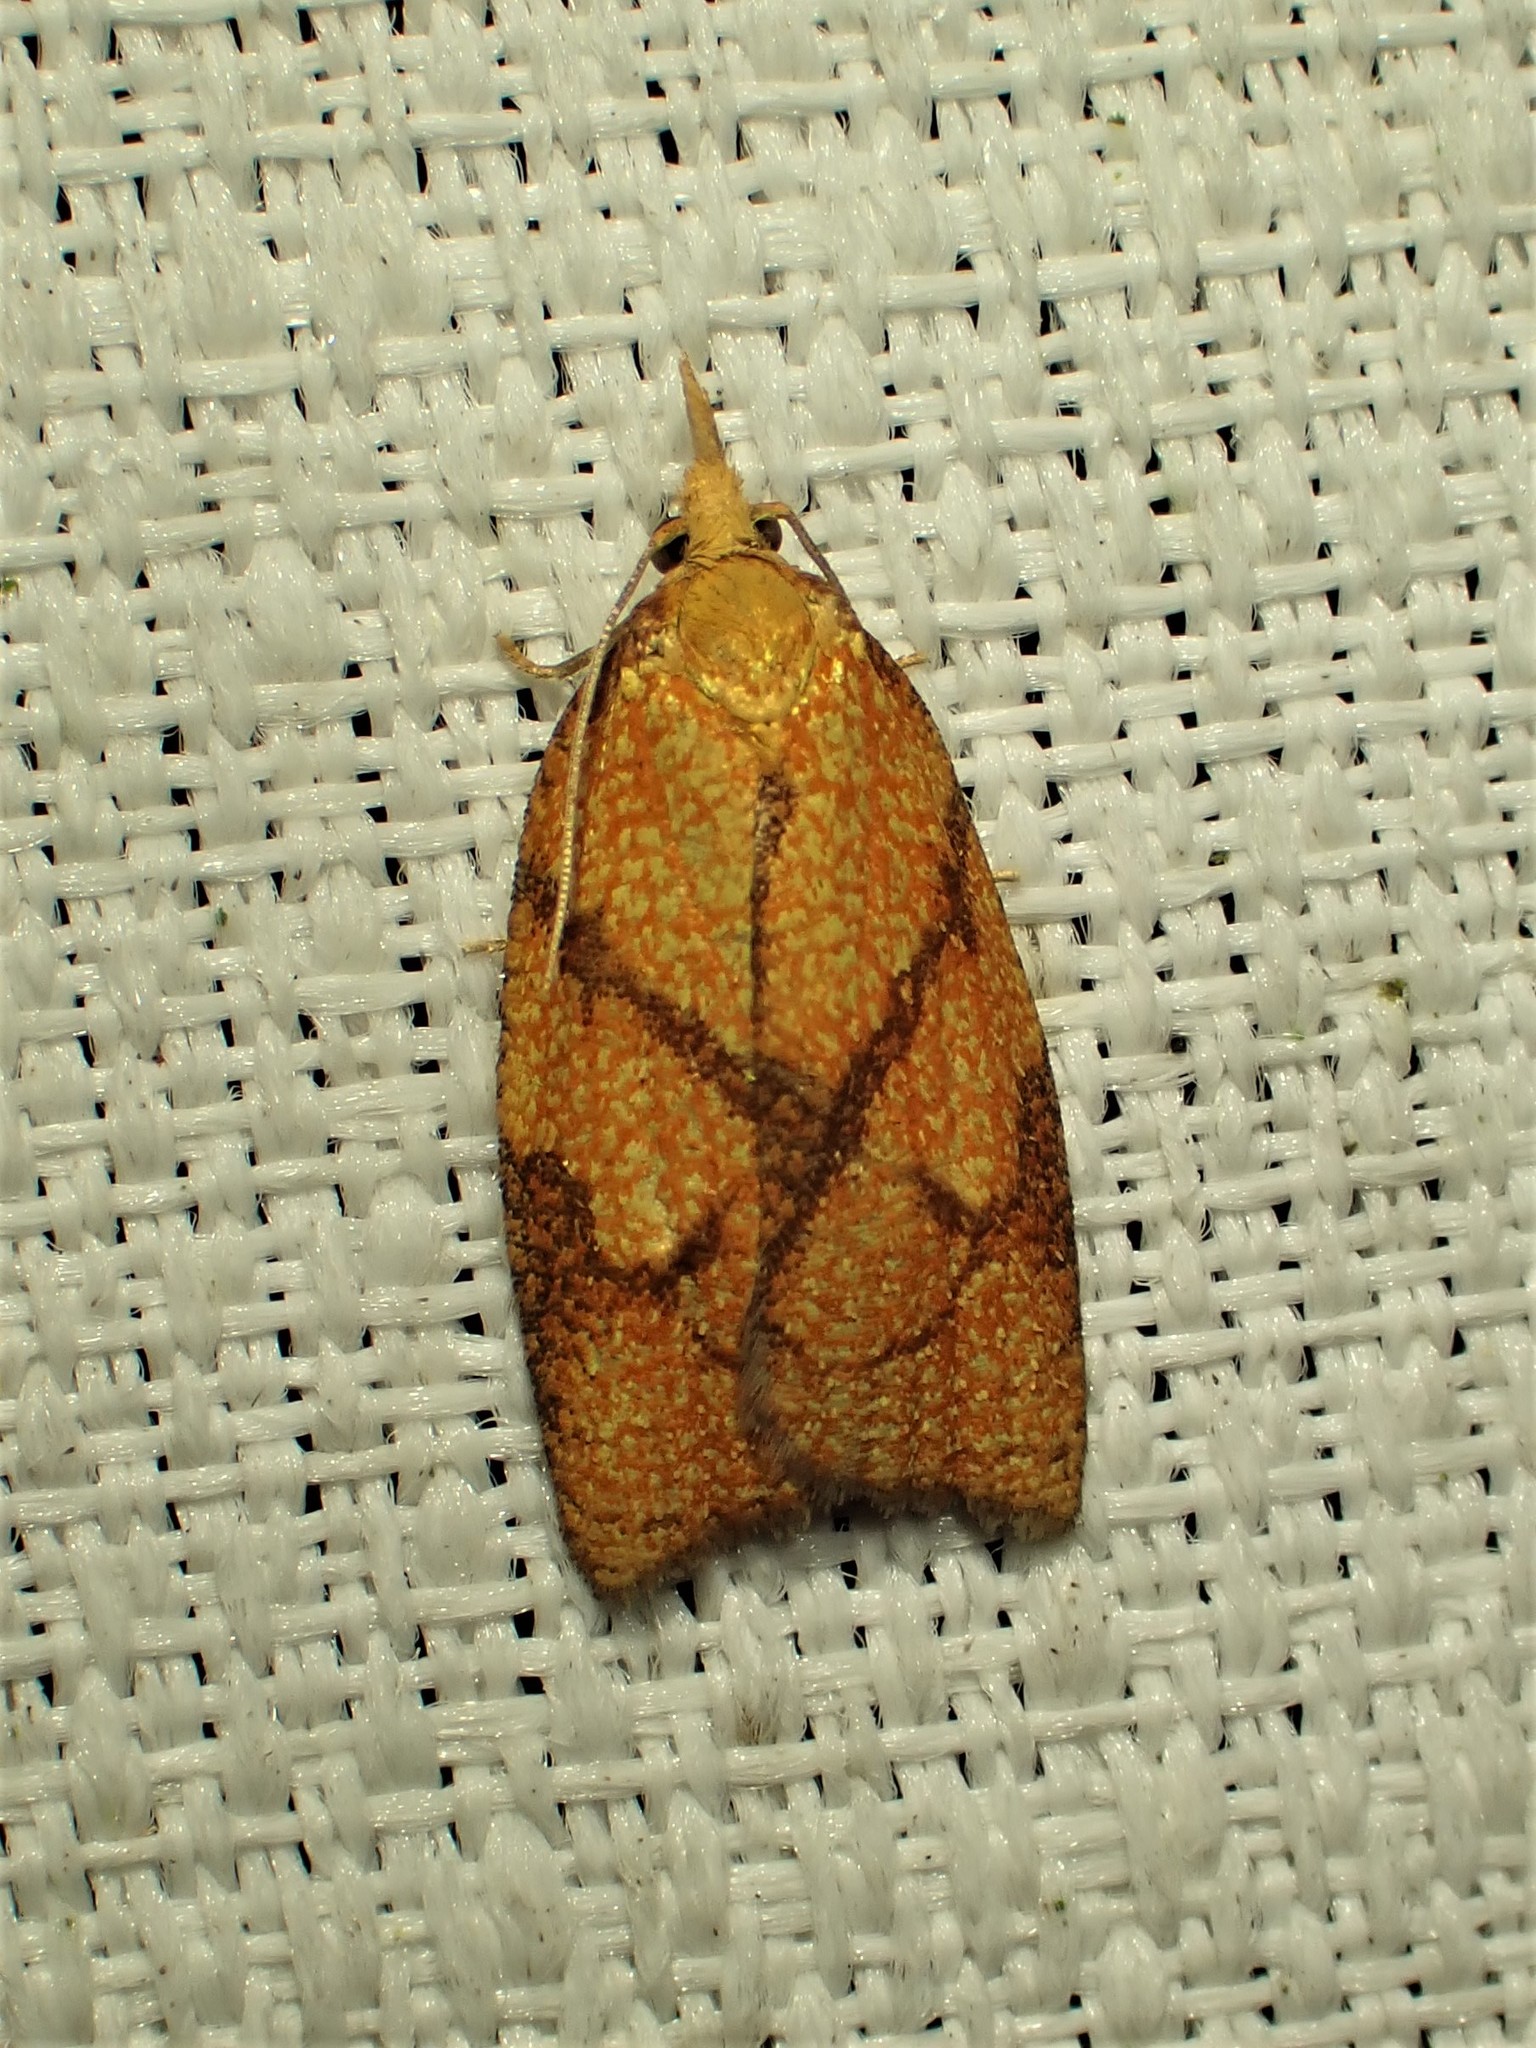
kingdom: Animalia
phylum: Arthropoda
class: Insecta
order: Lepidoptera
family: Tortricidae
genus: Cenopis
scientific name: Cenopis reticulatana
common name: Reticulated fruitworm moth
